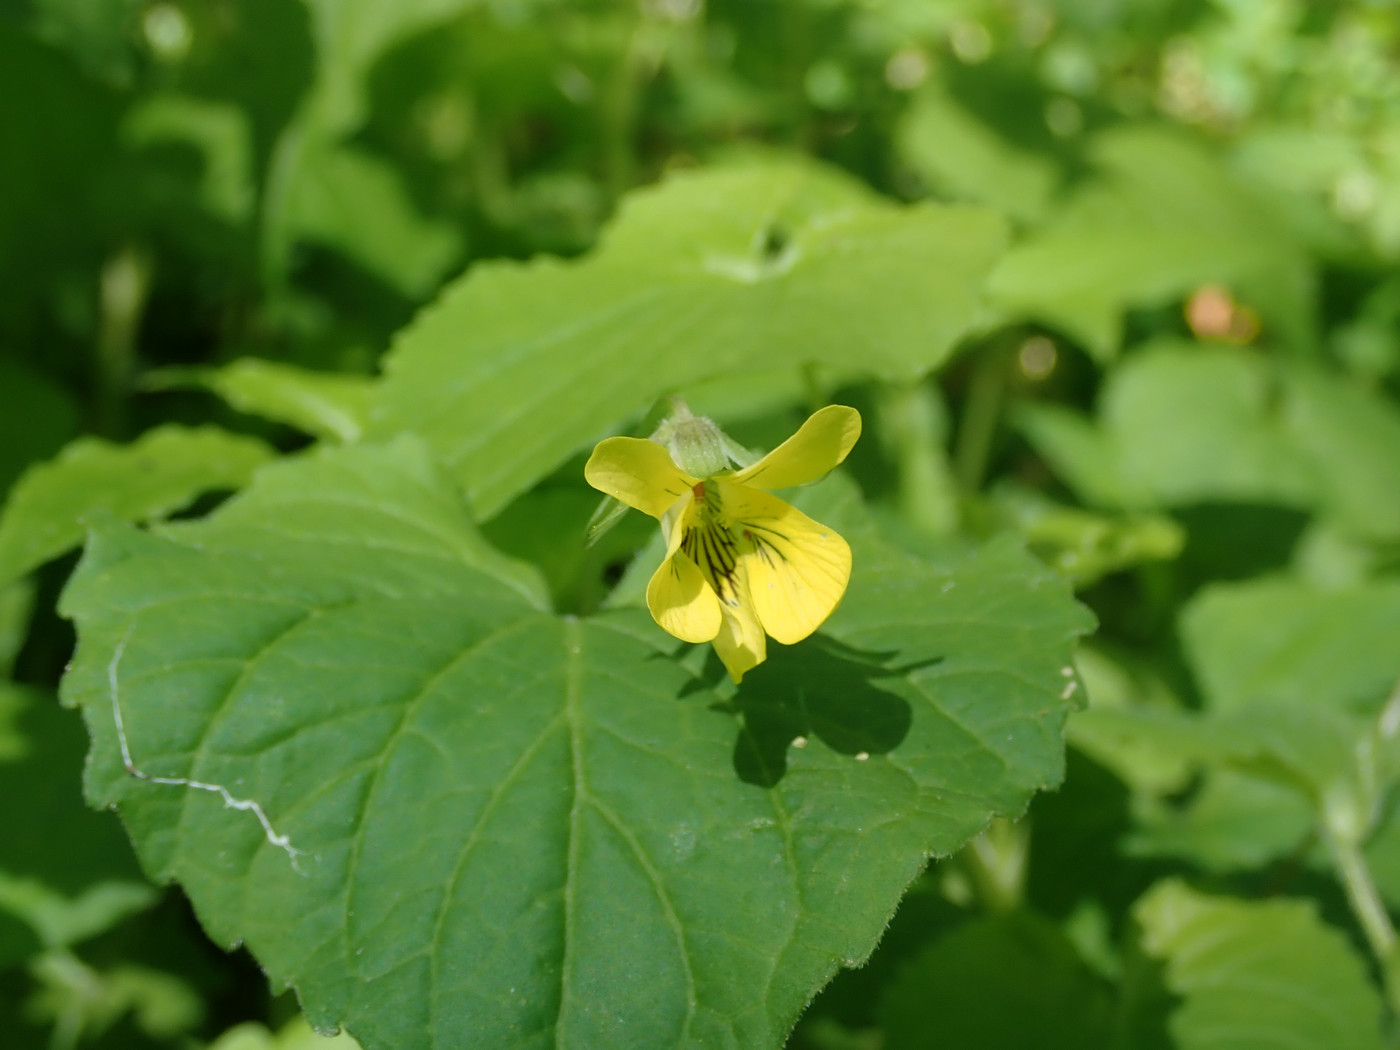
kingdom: Plantae
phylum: Tracheophyta
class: Magnoliopsida
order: Malpighiales
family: Violaceae
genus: Viola
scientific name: Viola eriocarpa
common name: Smooth yellow violet
